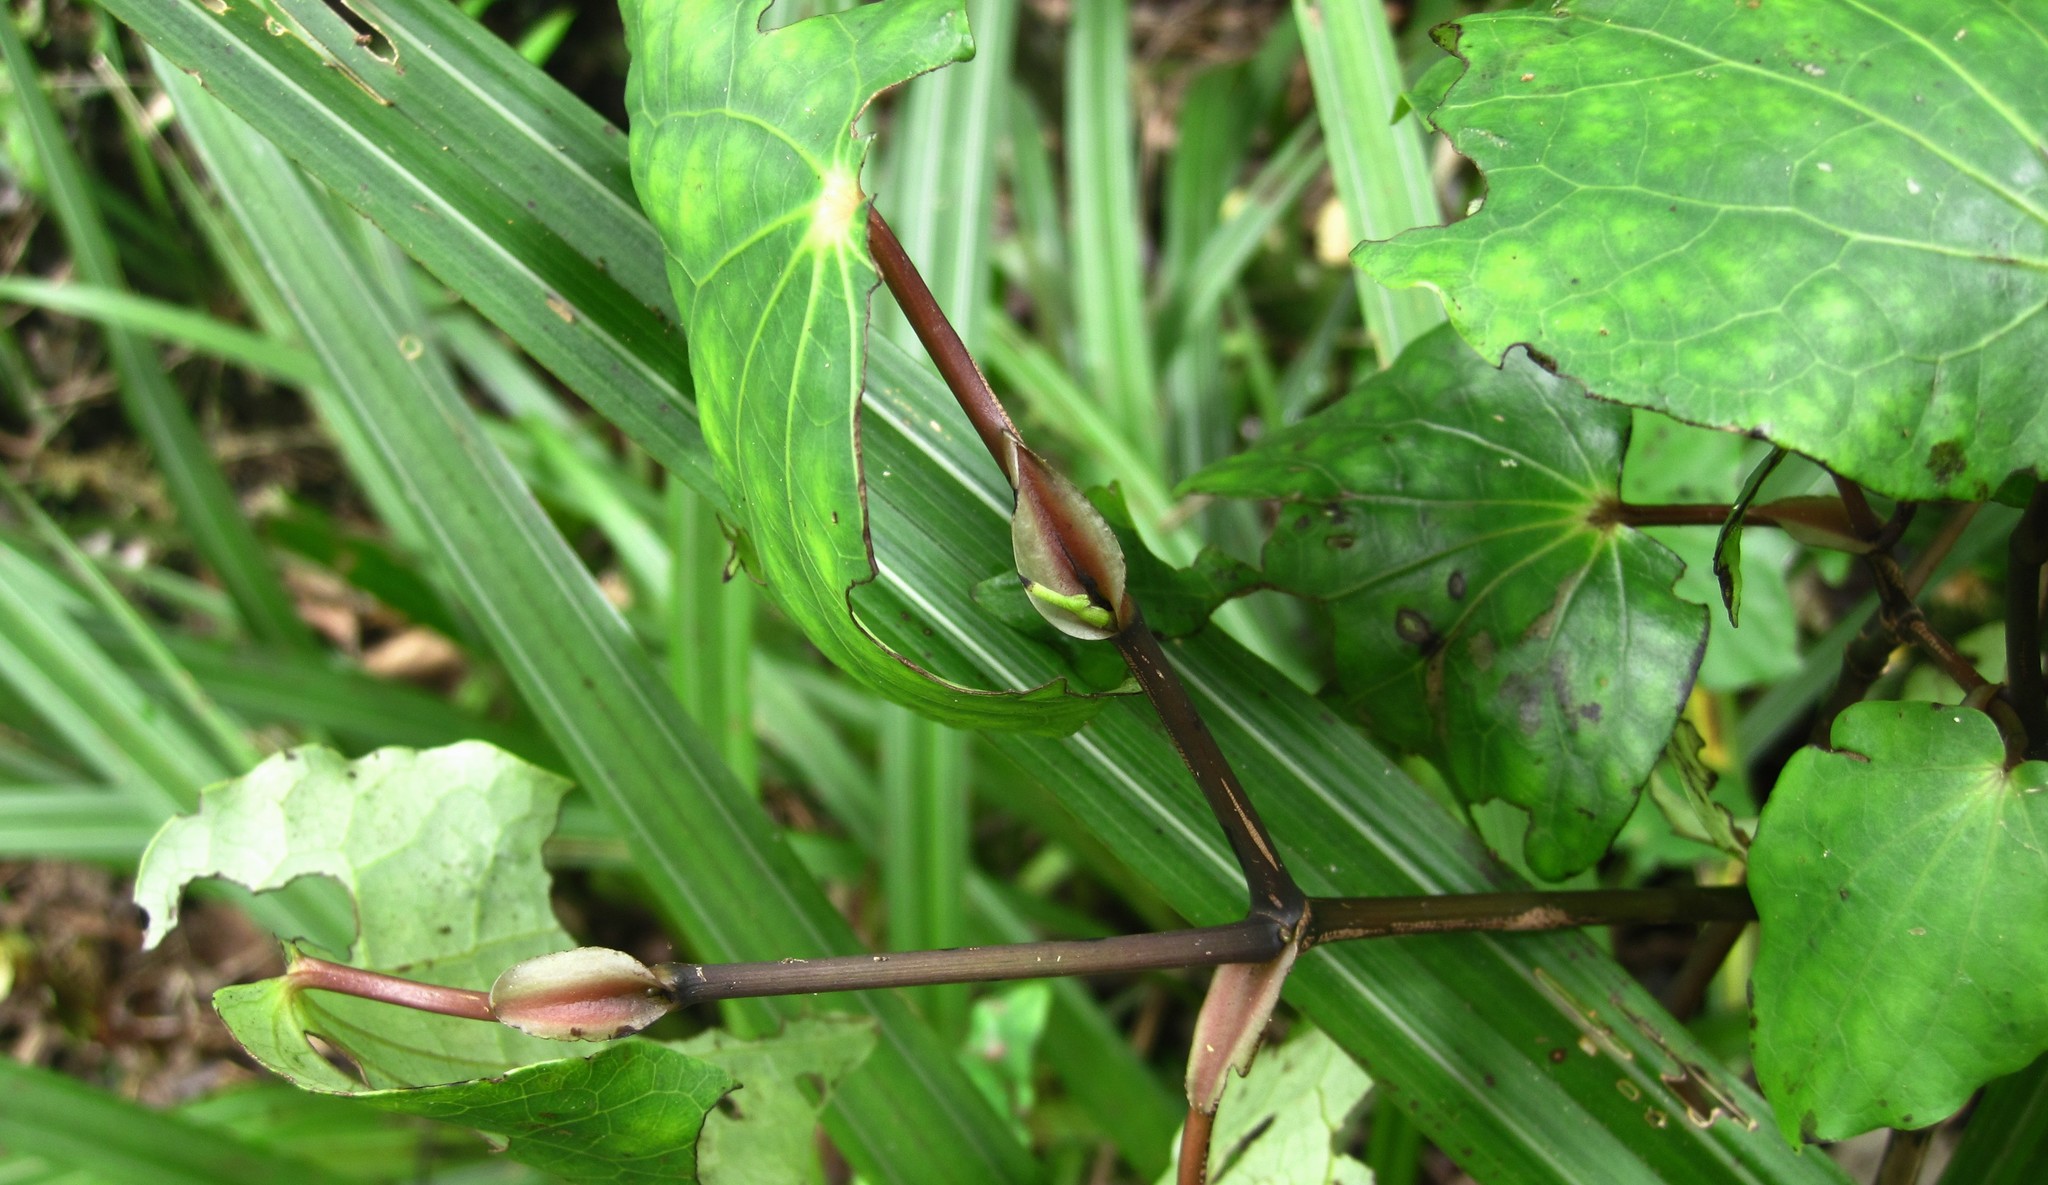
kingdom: Plantae
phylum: Tracheophyta
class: Magnoliopsida
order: Piperales
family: Piperaceae
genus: Macropiper
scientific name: Macropiper excelsum
